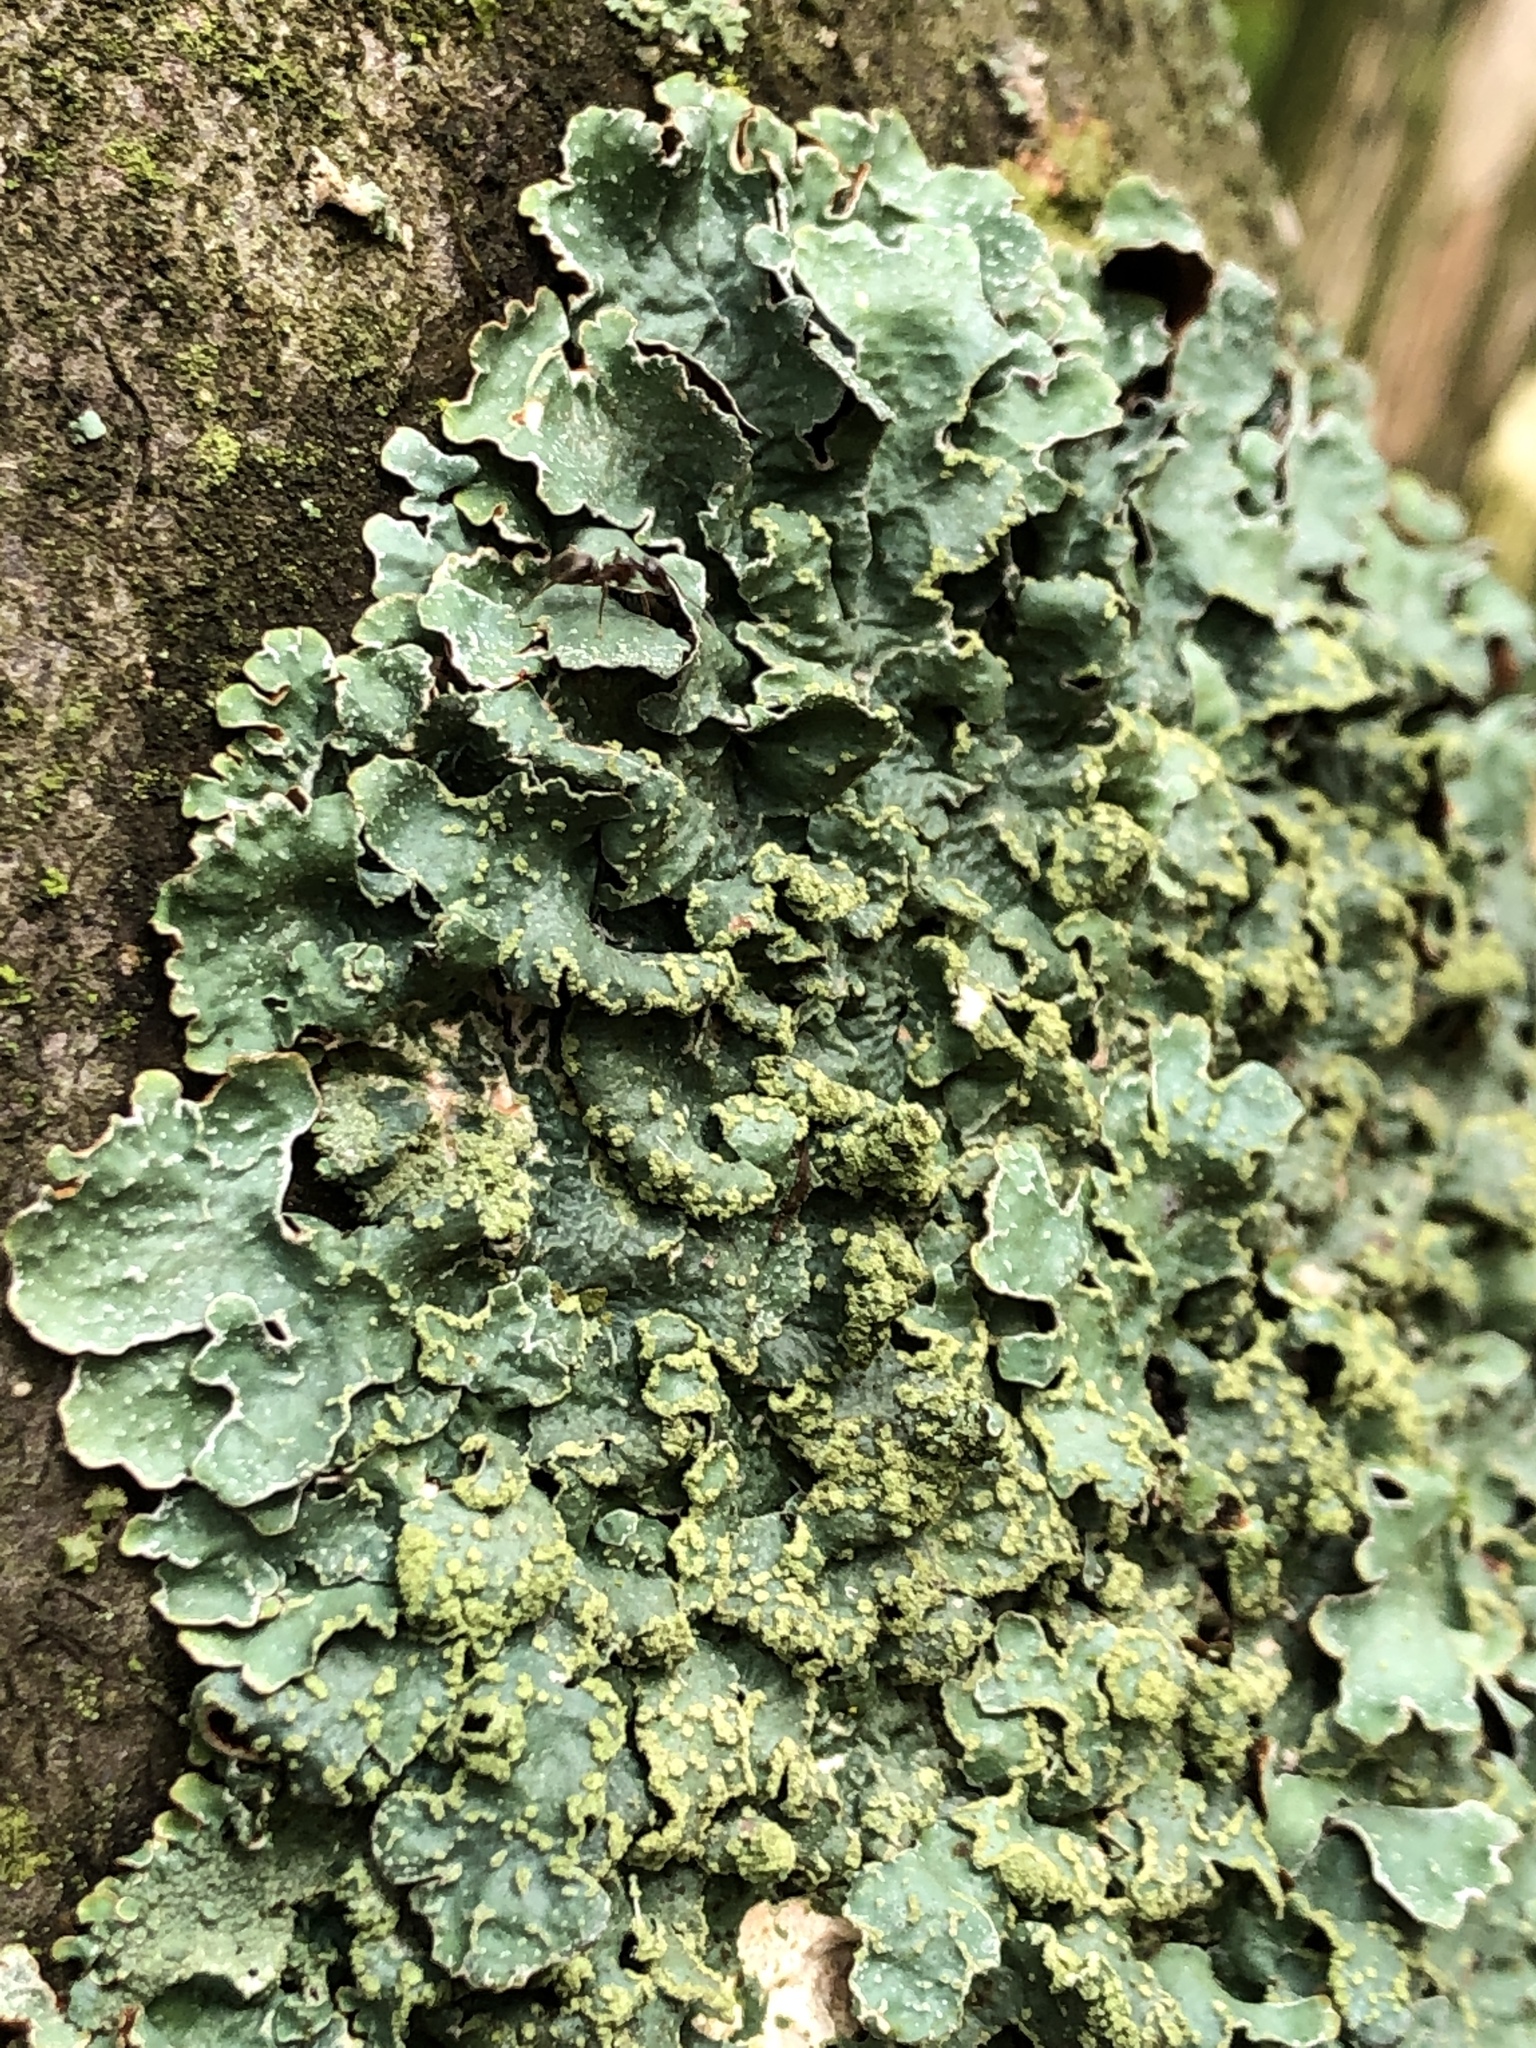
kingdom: Fungi
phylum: Ascomycota
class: Lecanoromycetes
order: Lecanorales
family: Parmeliaceae
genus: Parmelia
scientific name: Parmelia sulcata
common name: Netted shield lichen
